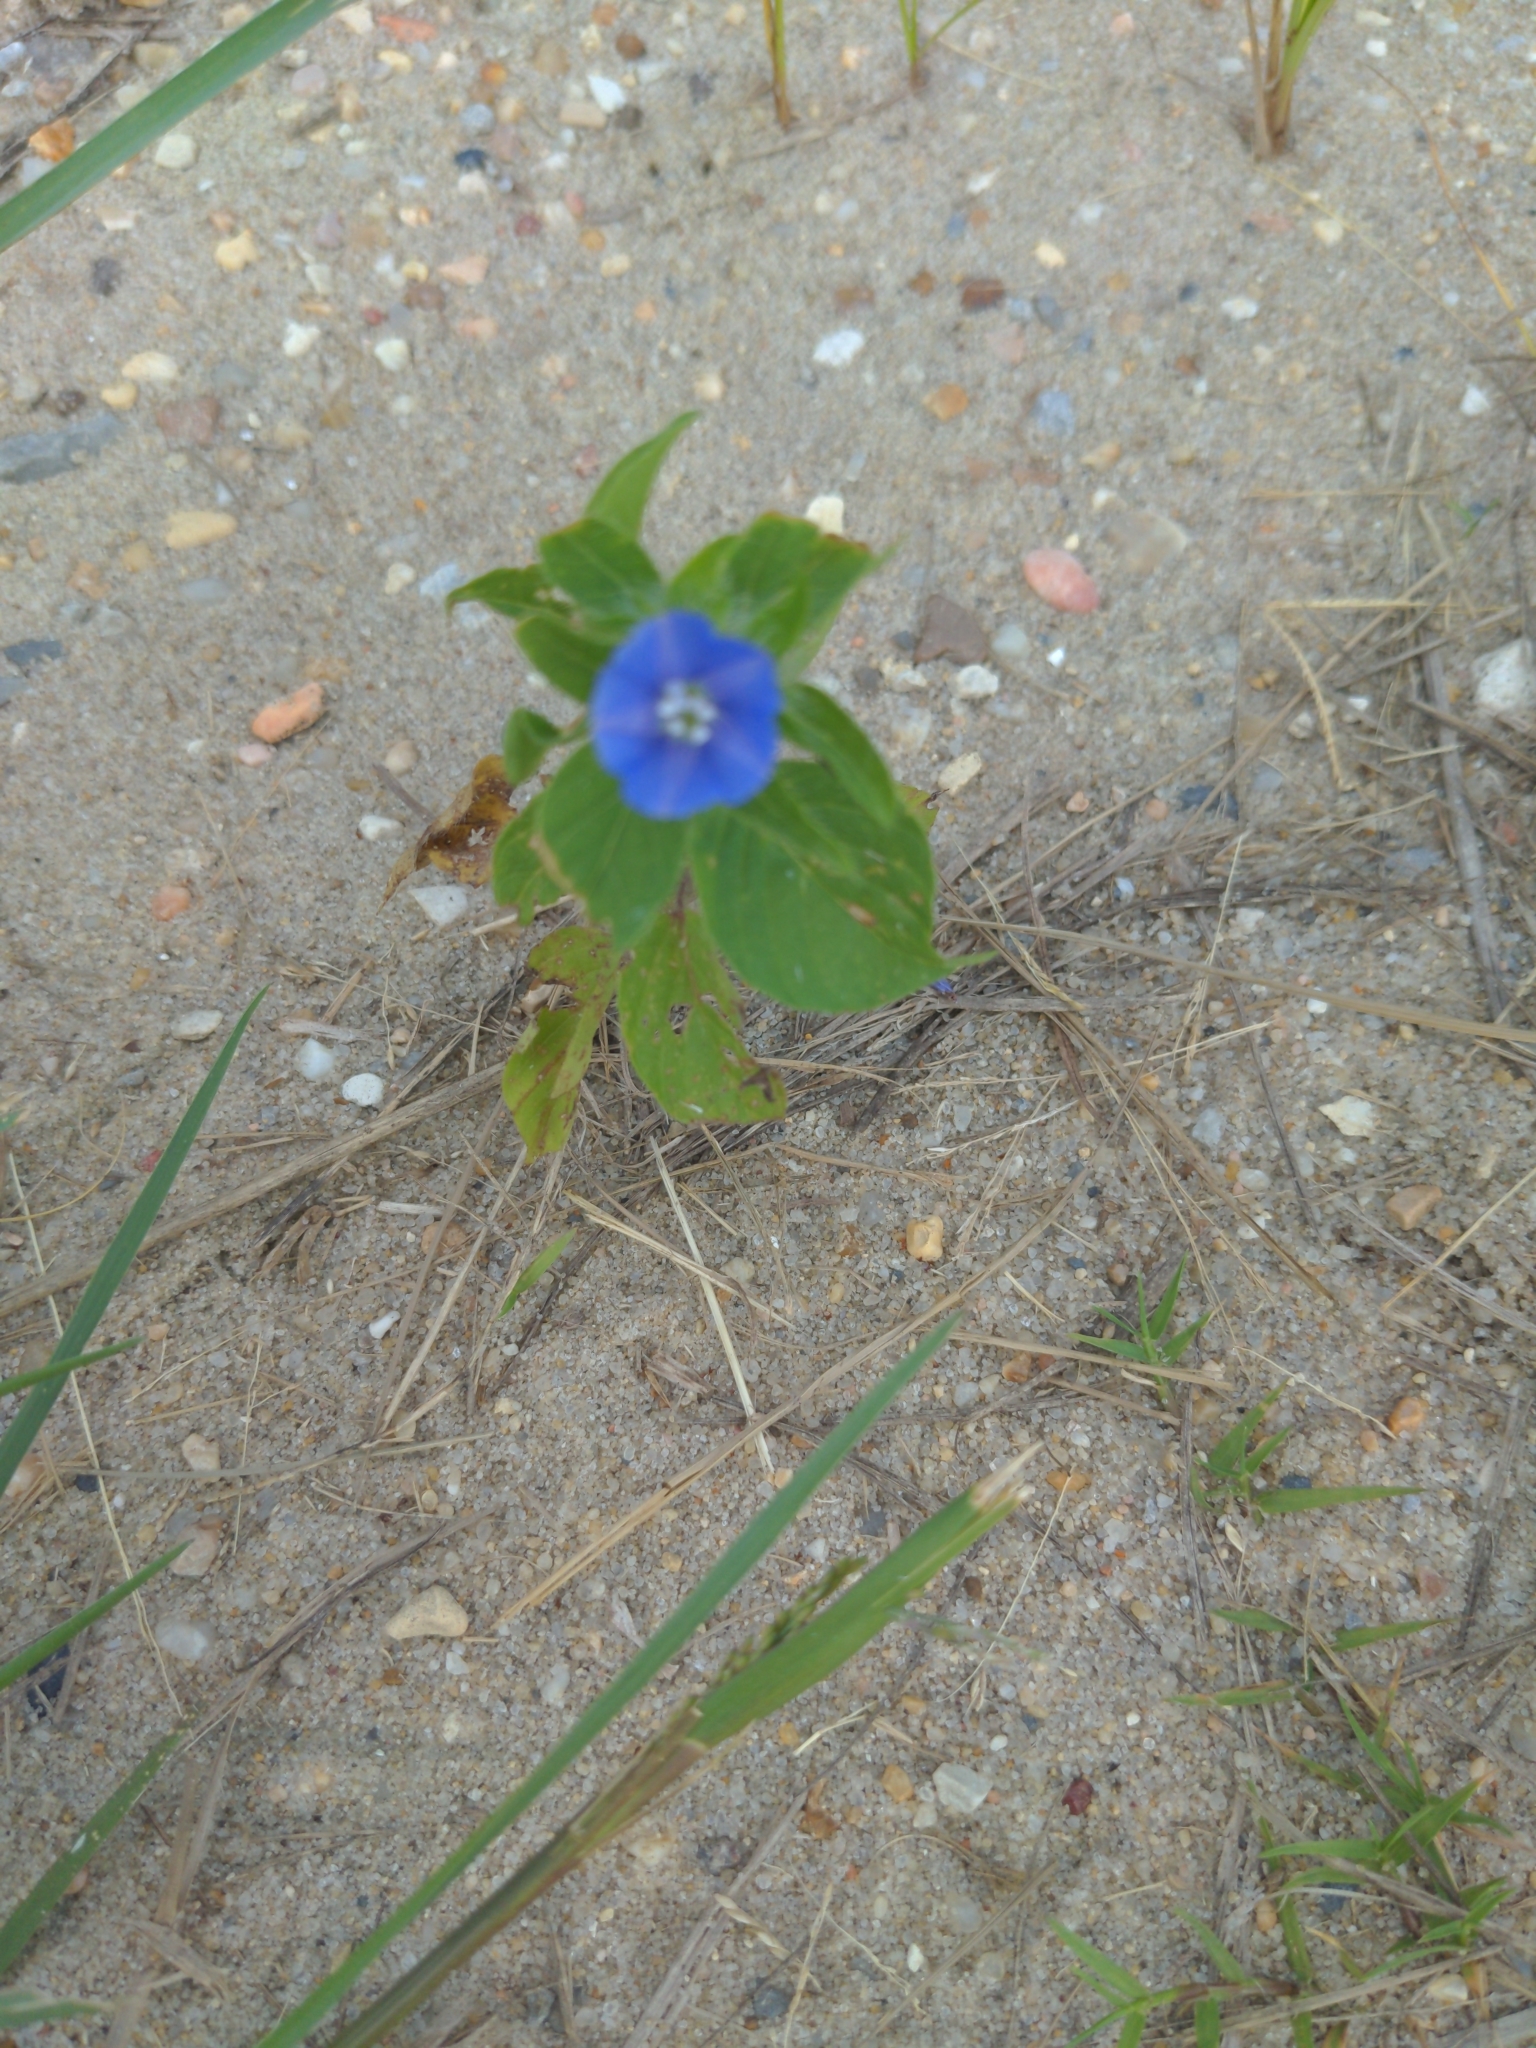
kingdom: Plantae
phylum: Tracheophyta
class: Magnoliopsida
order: Solanales
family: Convolvulaceae
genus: Jacquemontia
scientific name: Jacquemontia tamnifolia
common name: Hairy clustervine
